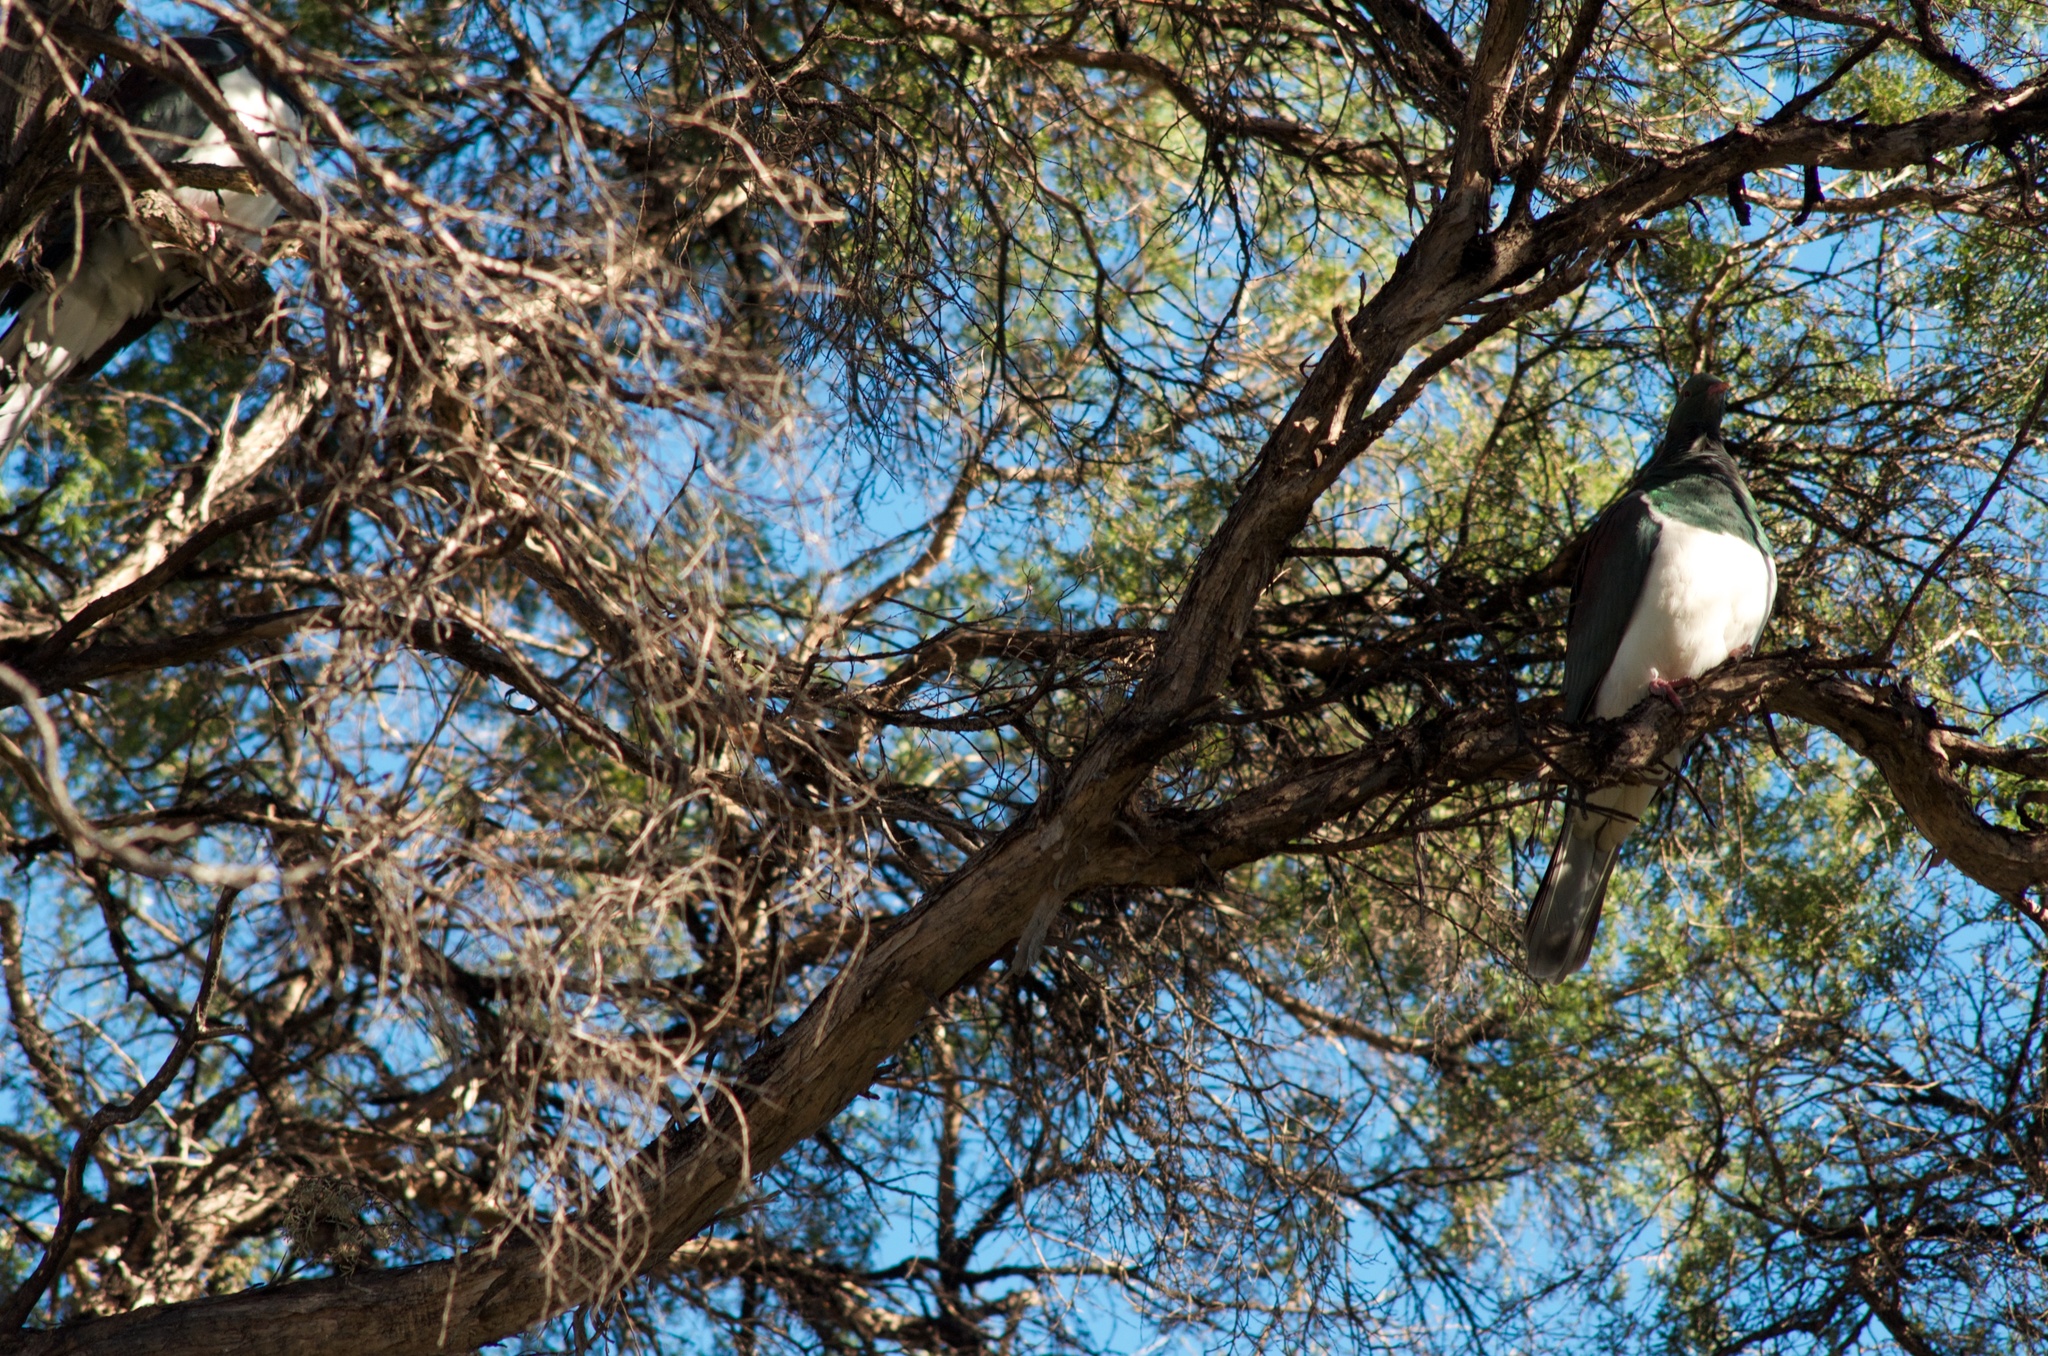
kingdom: Animalia
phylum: Chordata
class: Aves
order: Columbiformes
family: Columbidae
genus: Hemiphaga
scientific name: Hemiphaga novaeseelandiae
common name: New zealand pigeon
